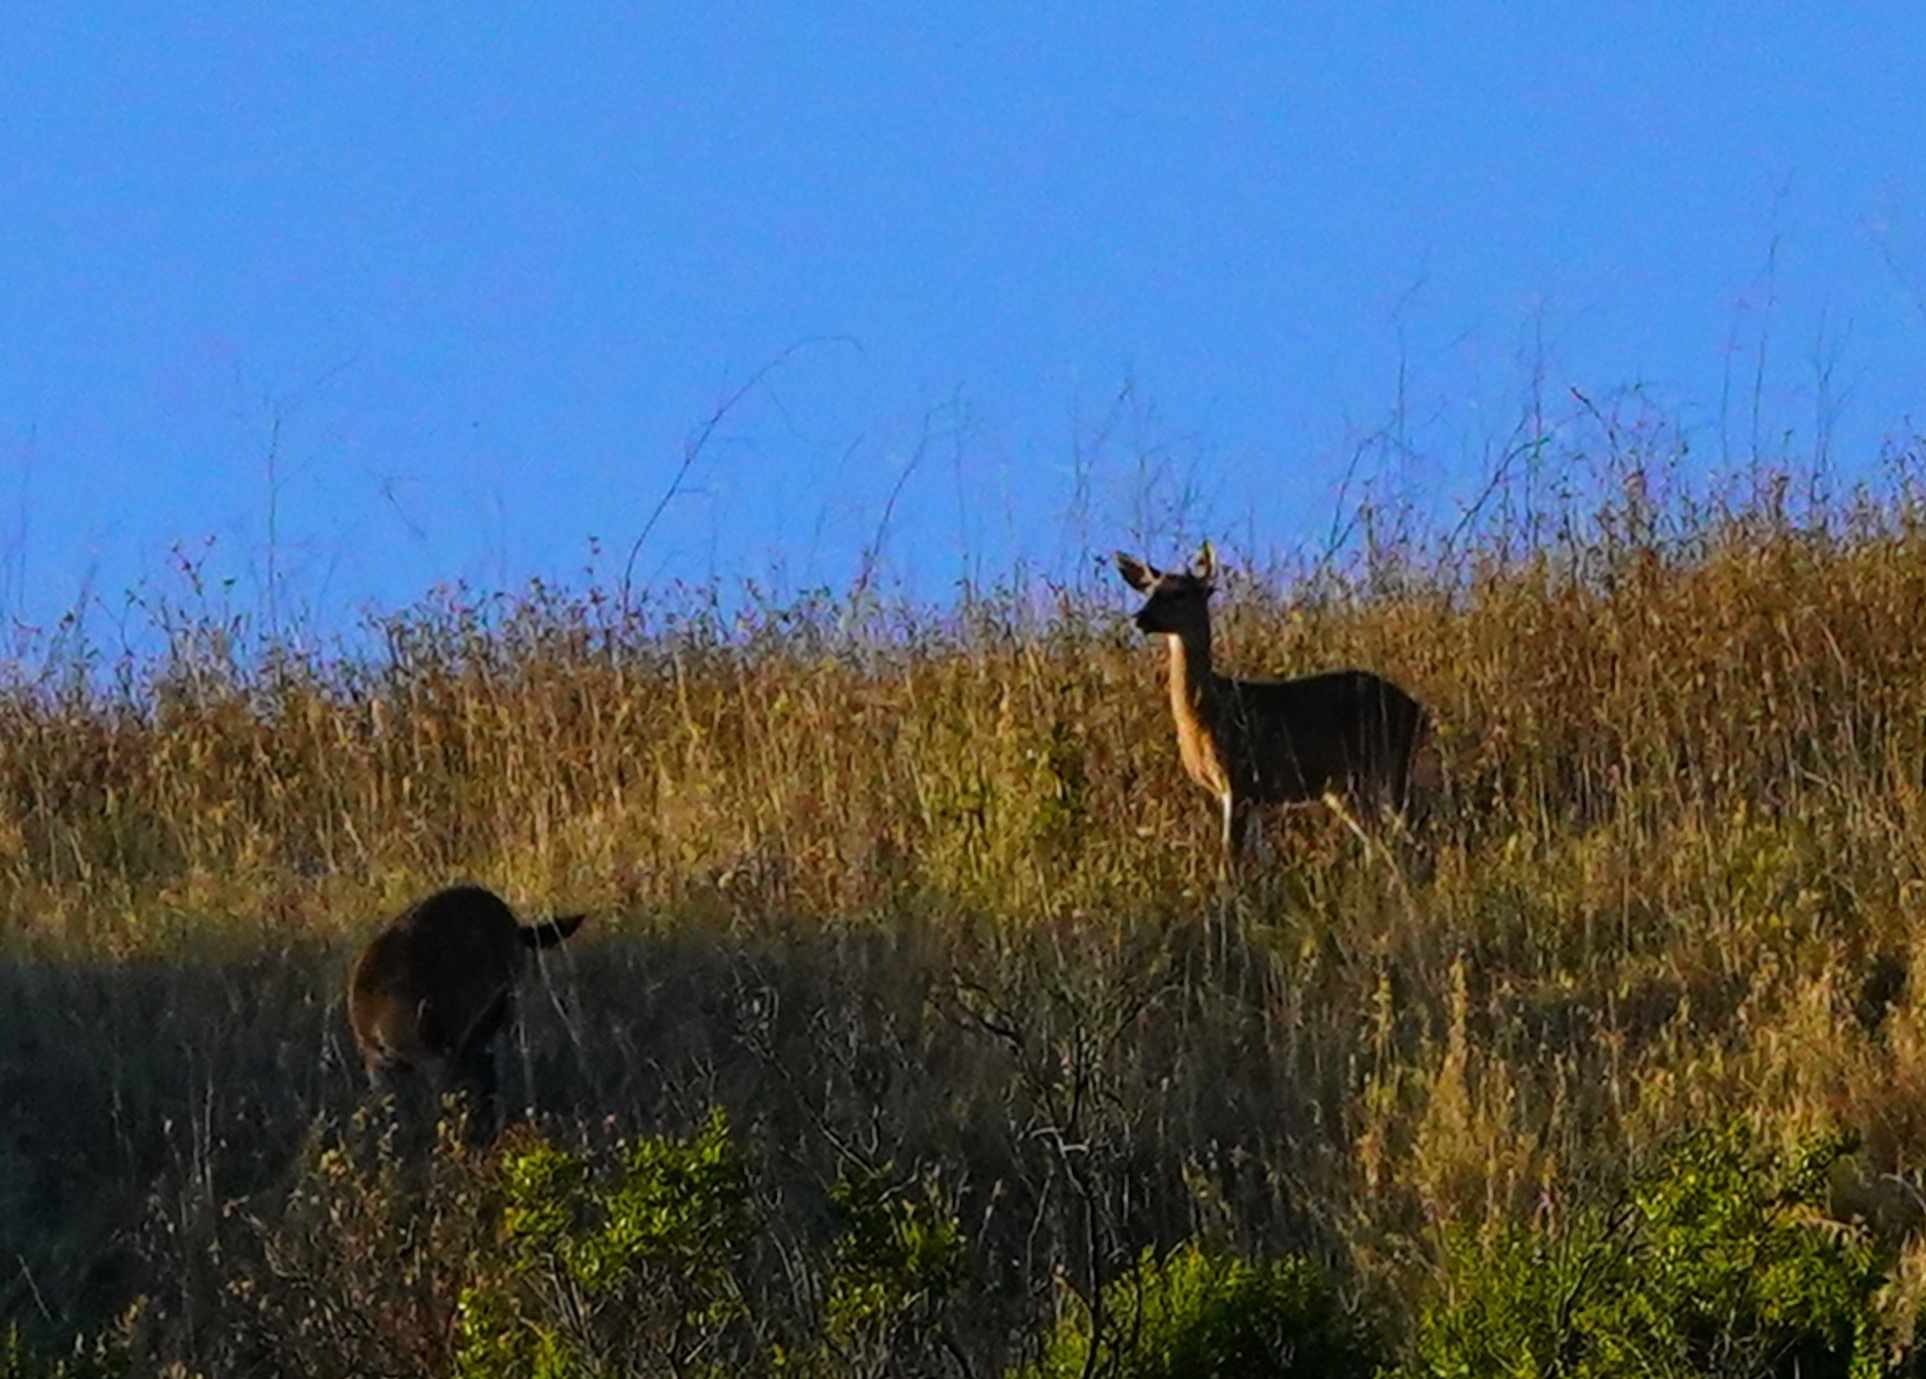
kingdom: Animalia
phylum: Chordata
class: Mammalia
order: Artiodactyla
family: Cervidae
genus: Odocoileus
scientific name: Odocoileus hemionus
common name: Mule deer
